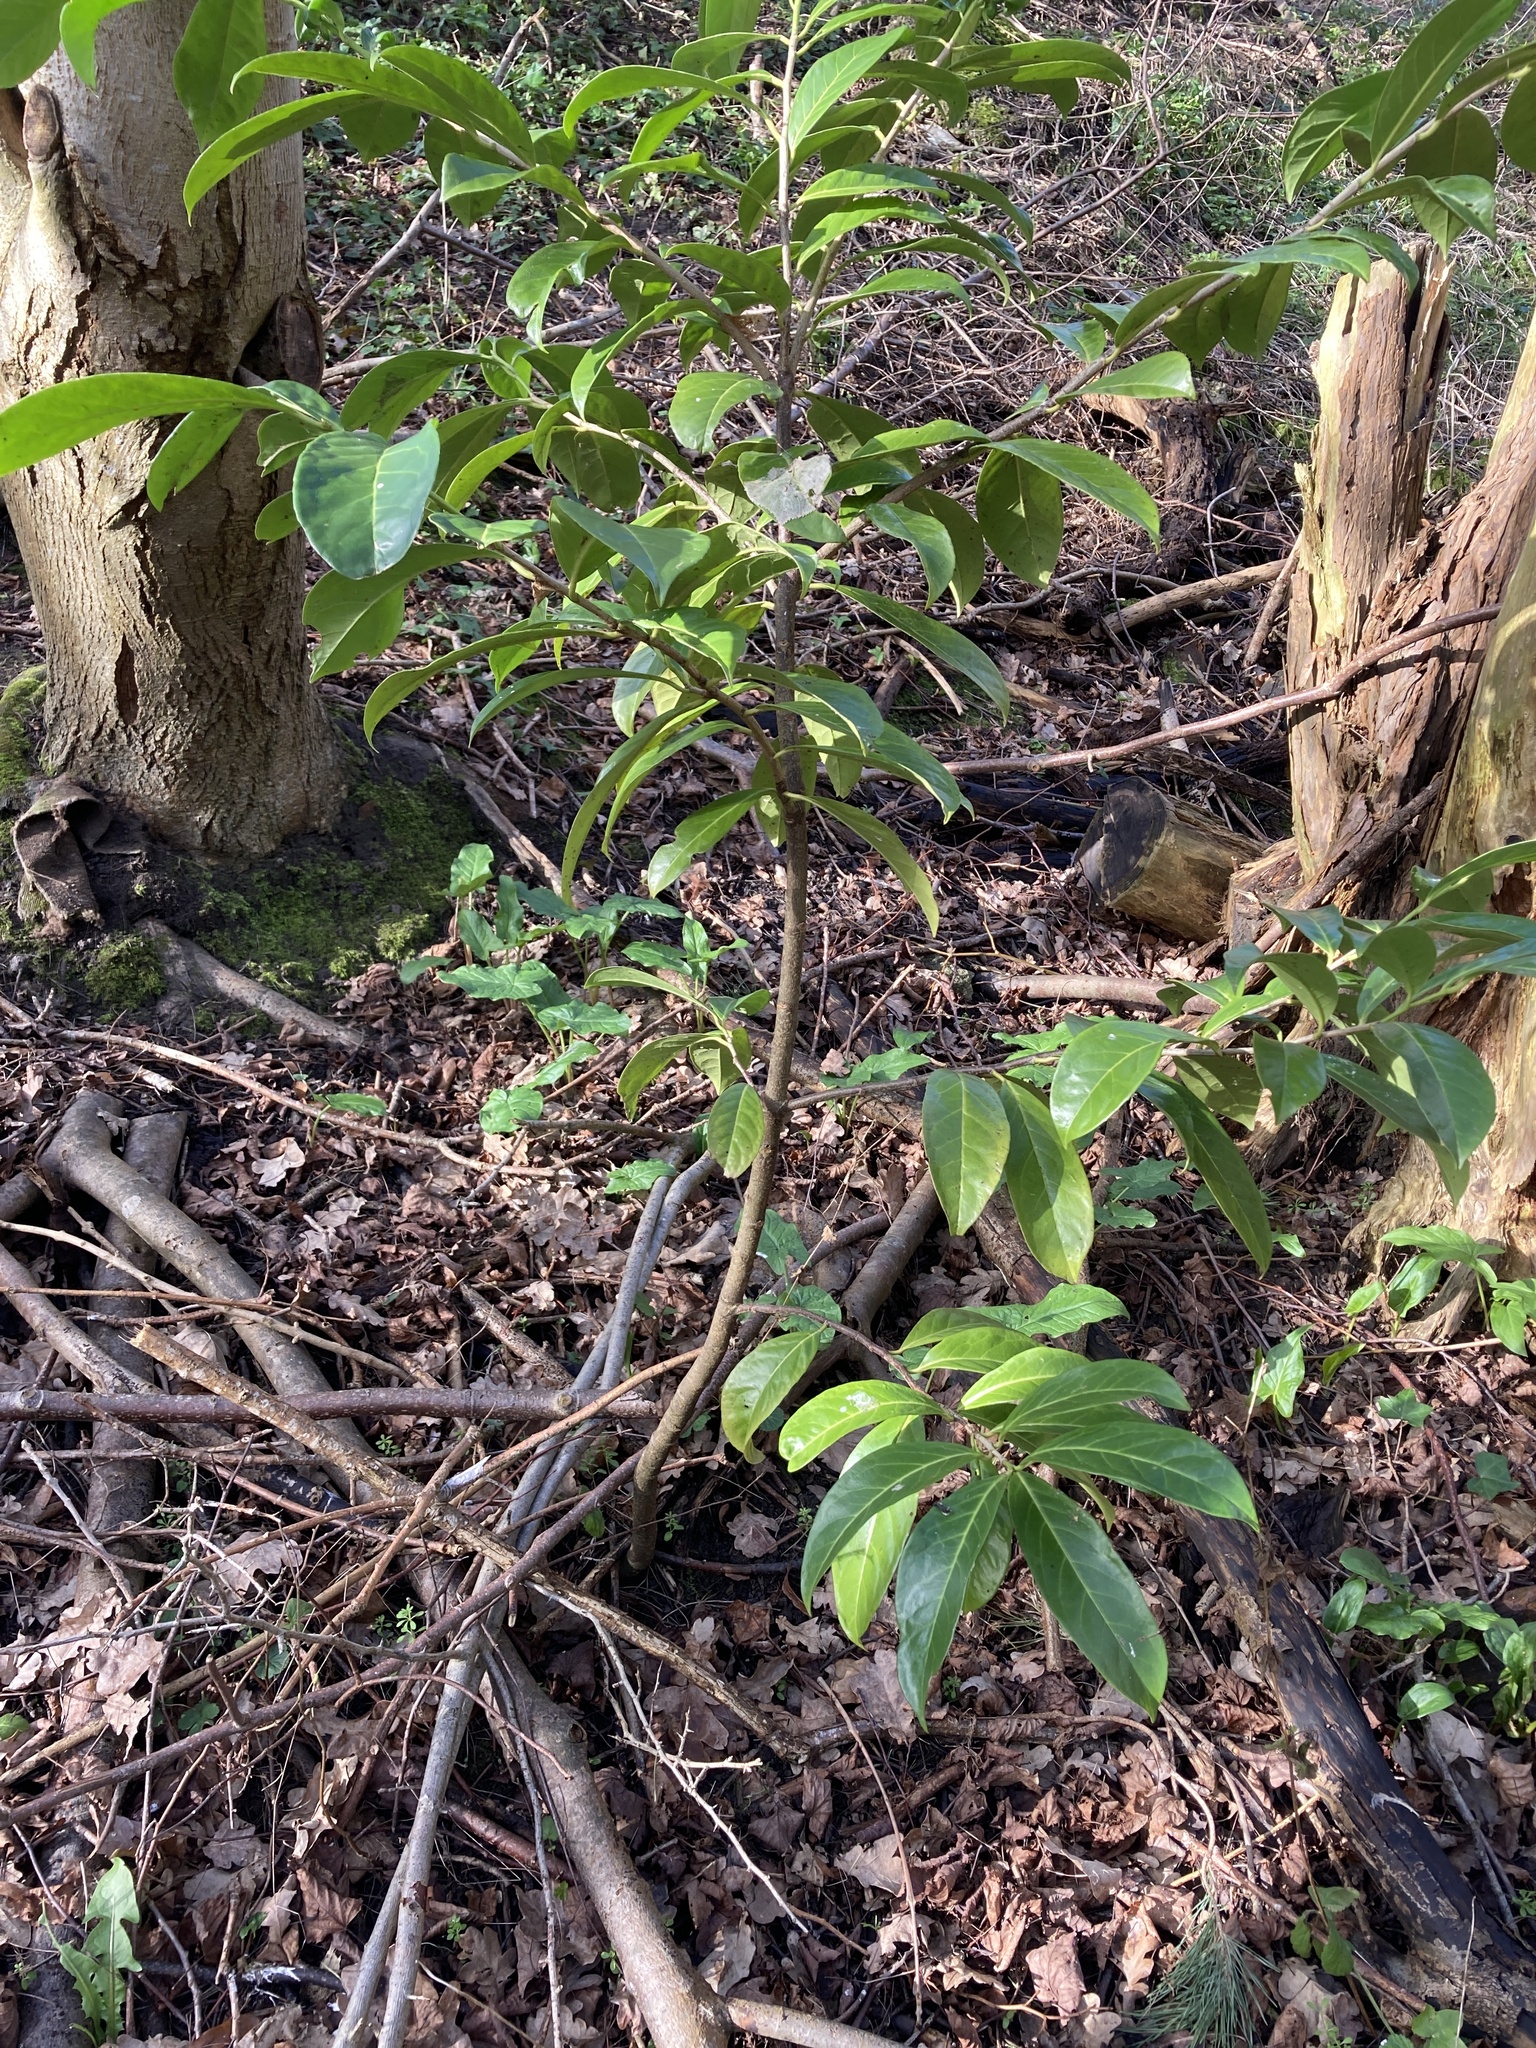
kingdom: Plantae
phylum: Tracheophyta
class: Magnoliopsida
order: Rosales
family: Rosaceae
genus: Prunus
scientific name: Prunus laurocerasus
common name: Cherry laurel
